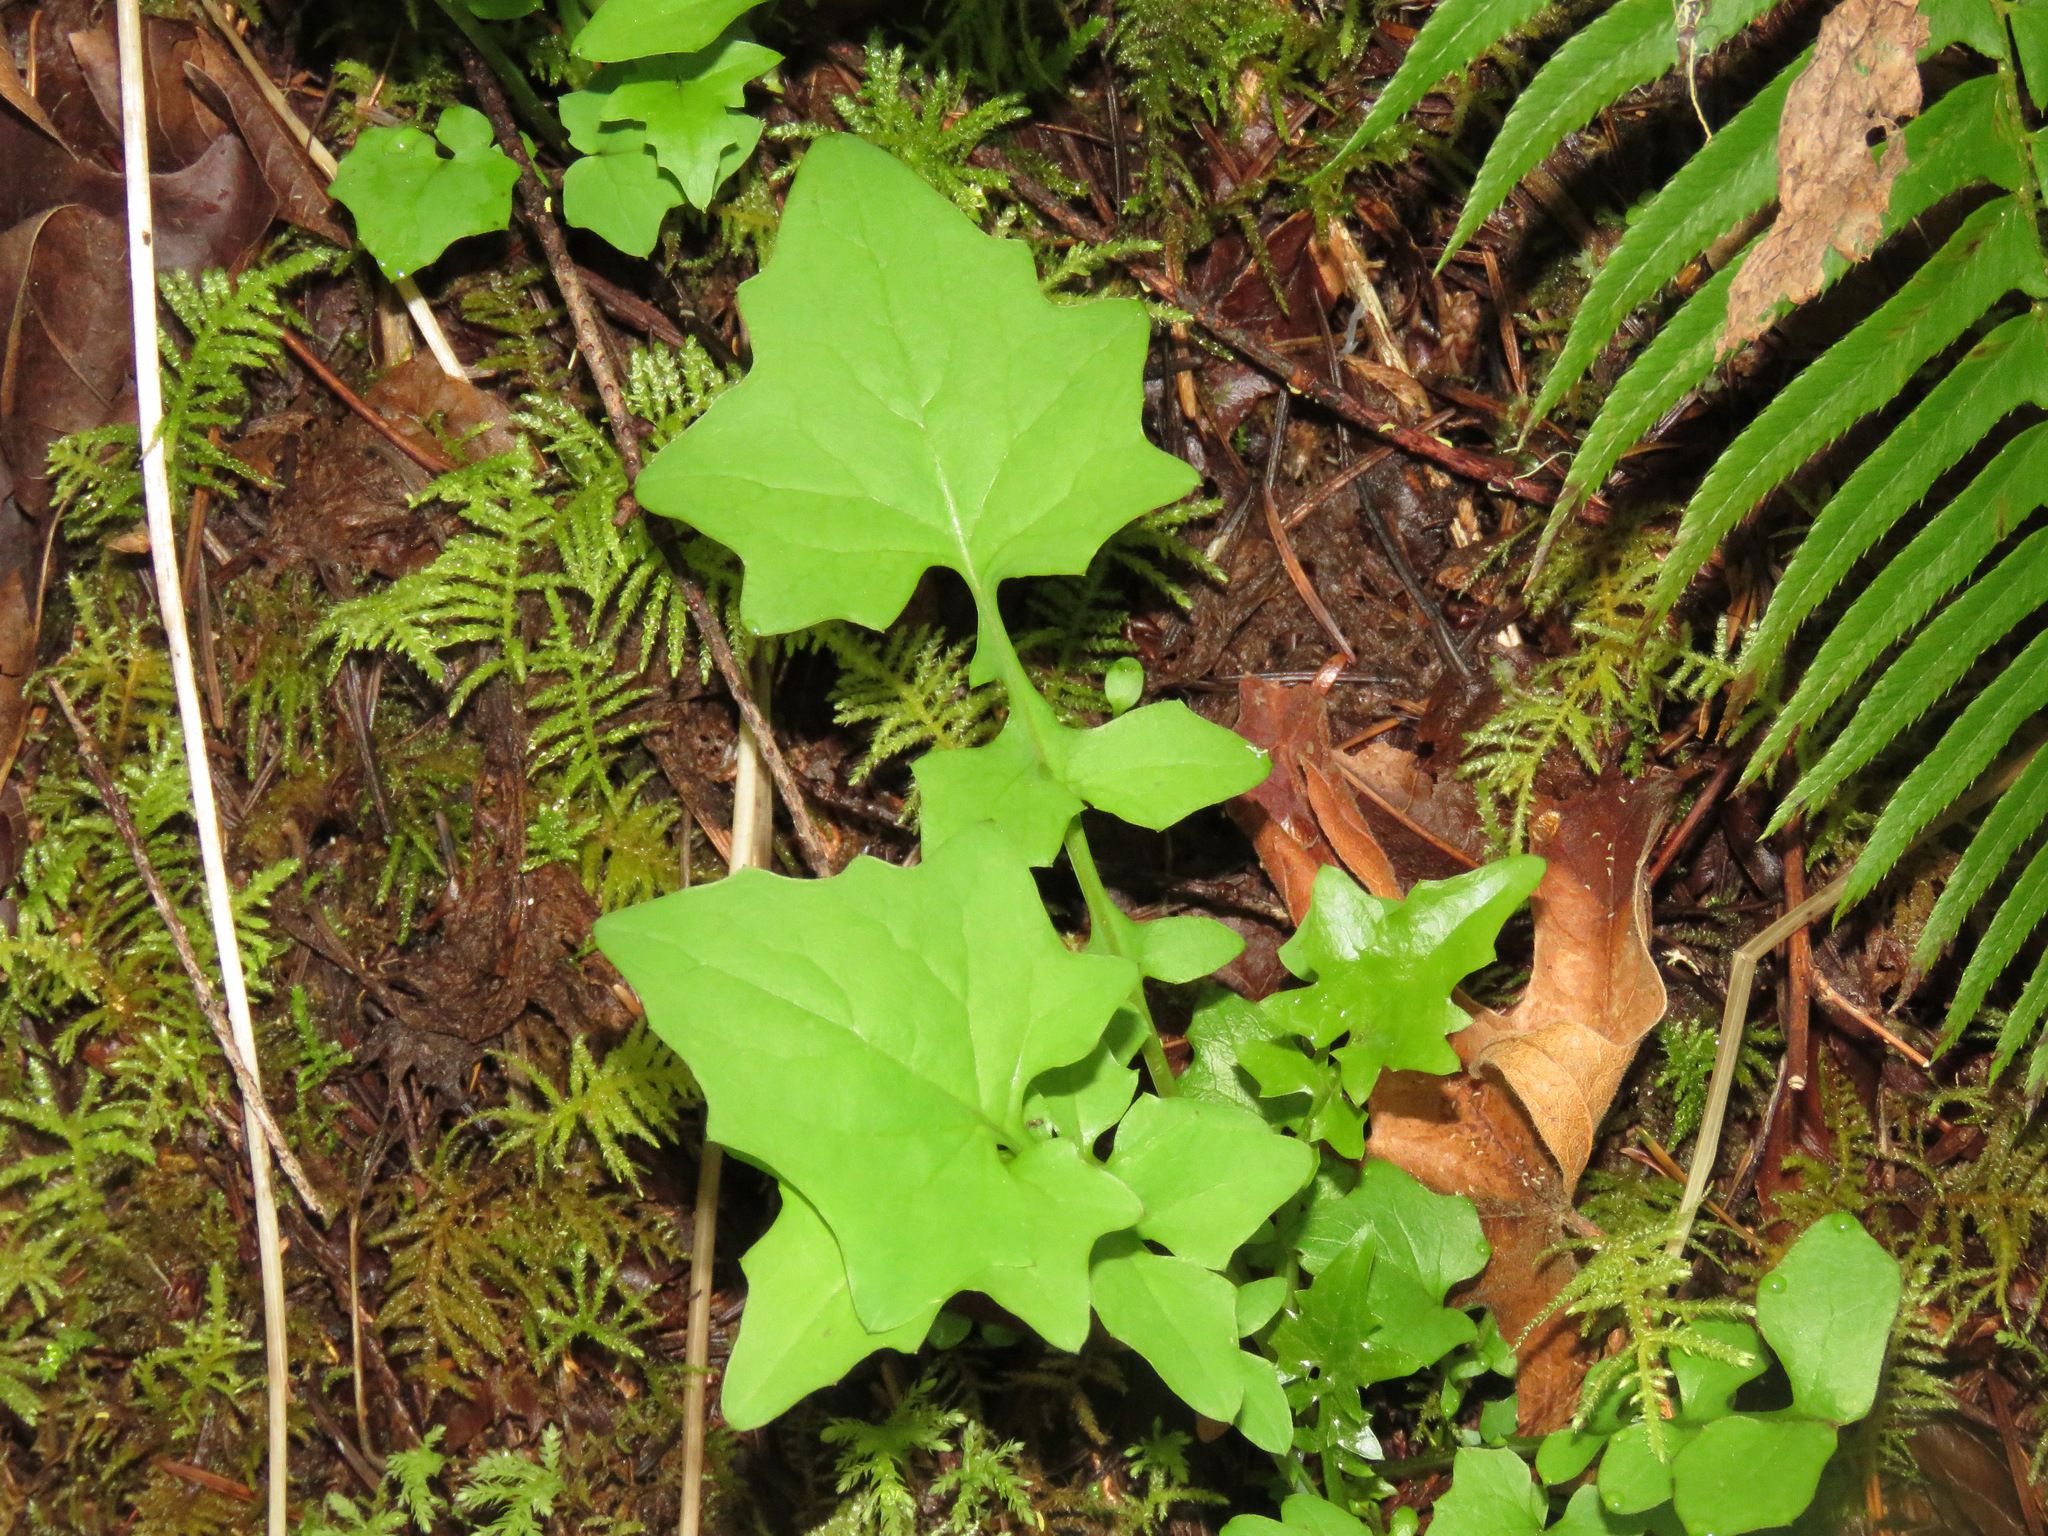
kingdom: Plantae
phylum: Tracheophyta
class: Magnoliopsida
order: Asterales
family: Asteraceae
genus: Mycelis
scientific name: Mycelis muralis
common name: Wall lettuce
